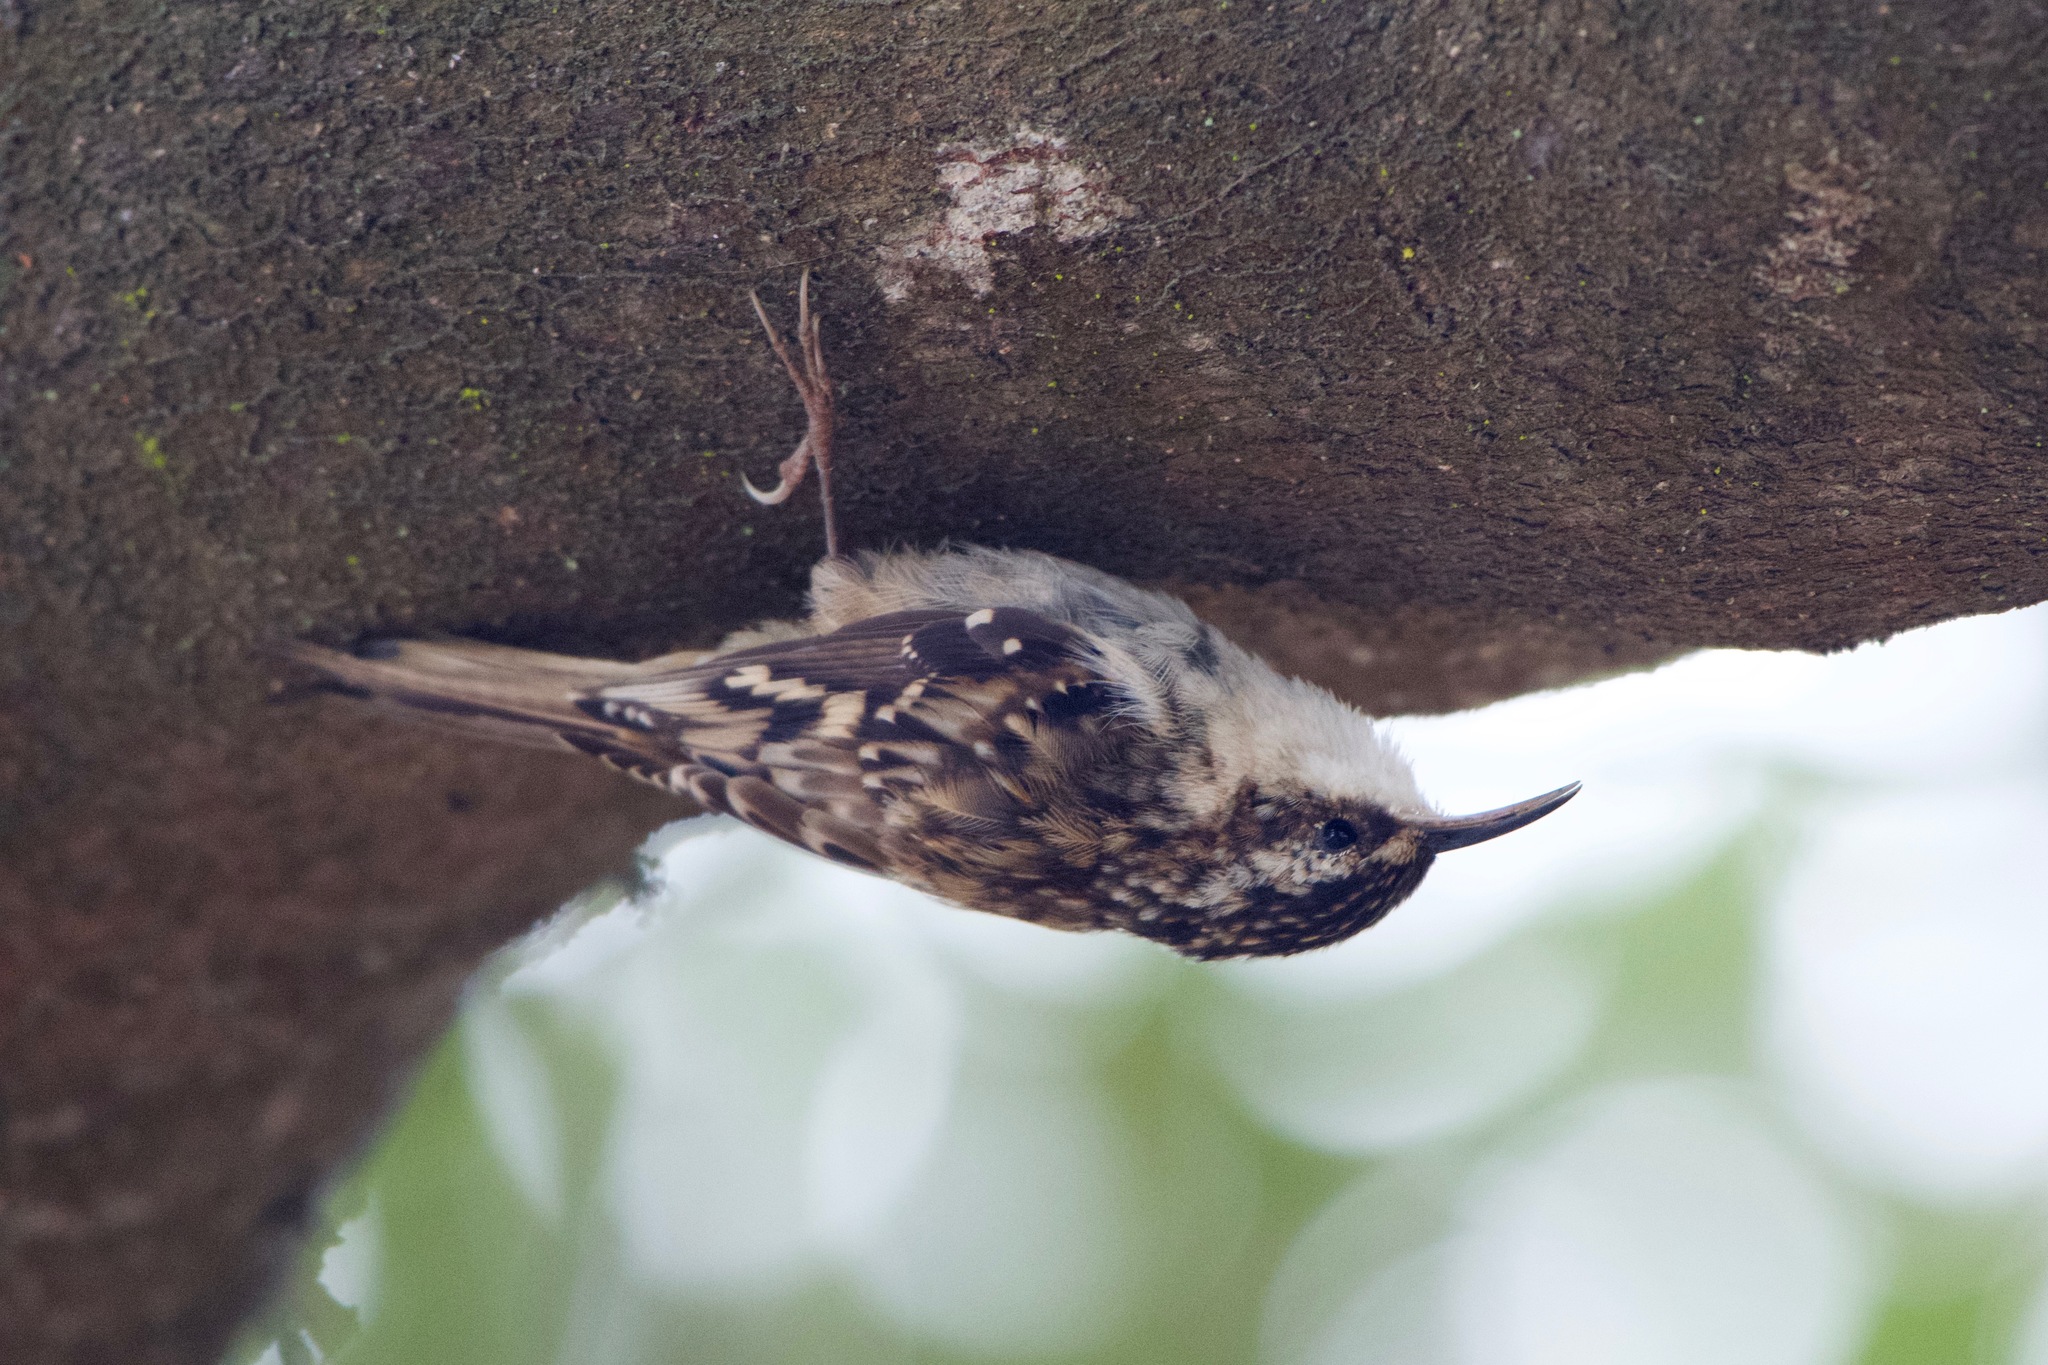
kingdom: Animalia
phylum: Chordata
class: Aves
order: Passeriformes
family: Certhiidae
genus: Certhia
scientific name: Certhia americana
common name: Brown creeper
